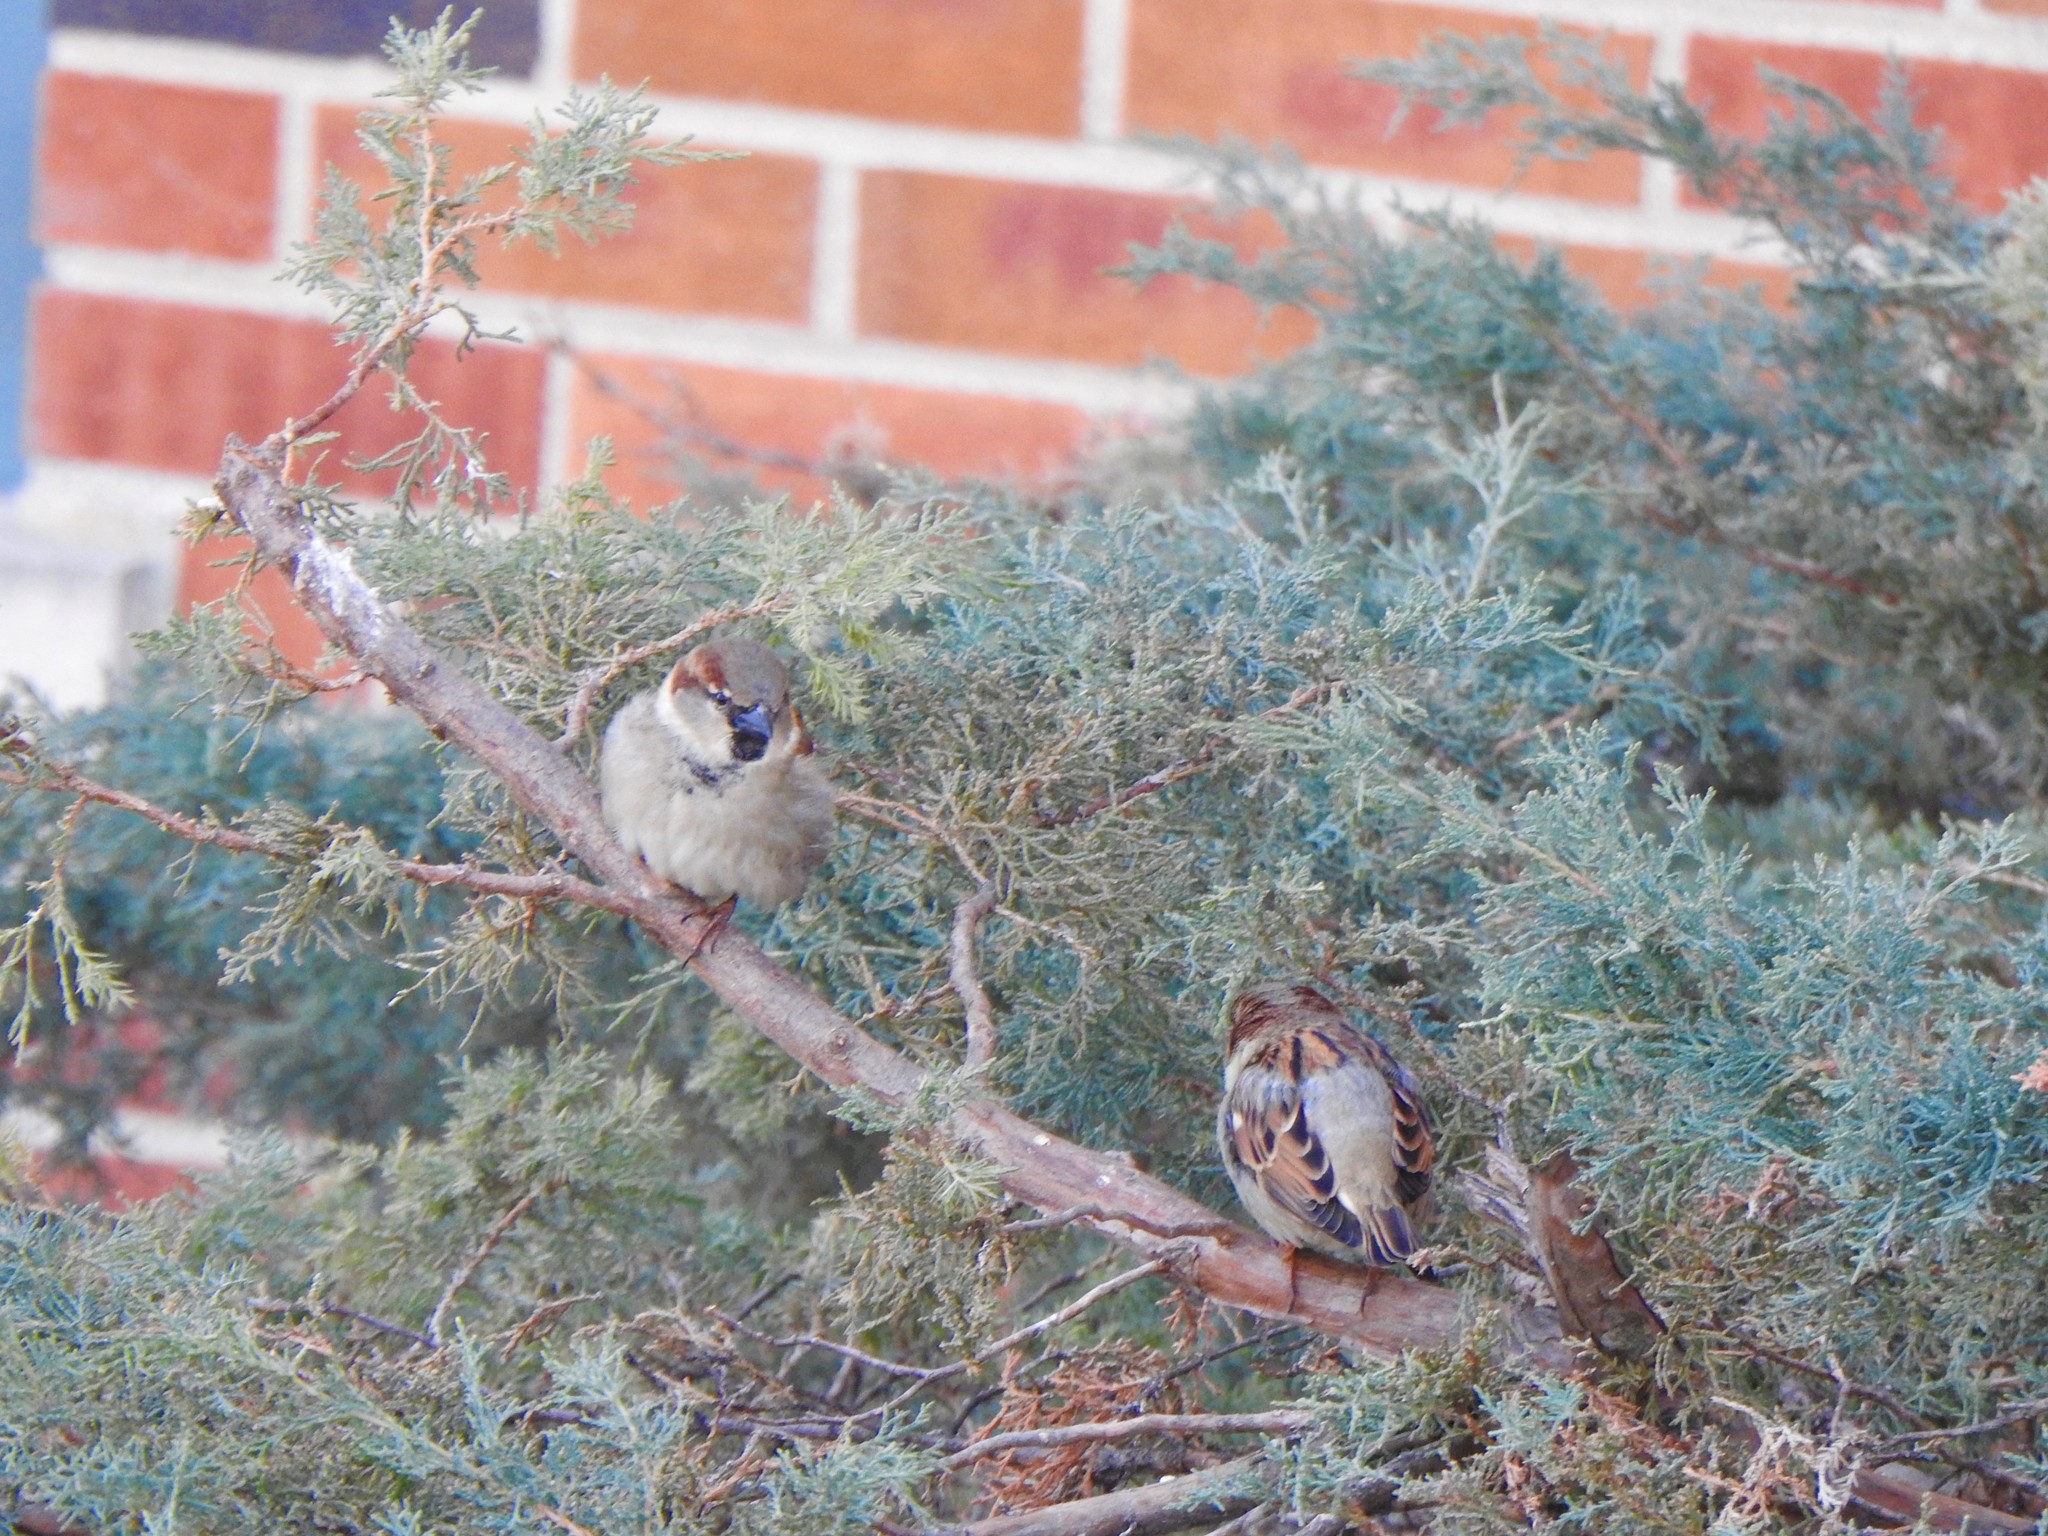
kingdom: Animalia
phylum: Chordata
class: Aves
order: Passeriformes
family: Passeridae
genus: Passer
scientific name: Passer domesticus
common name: House sparrow
